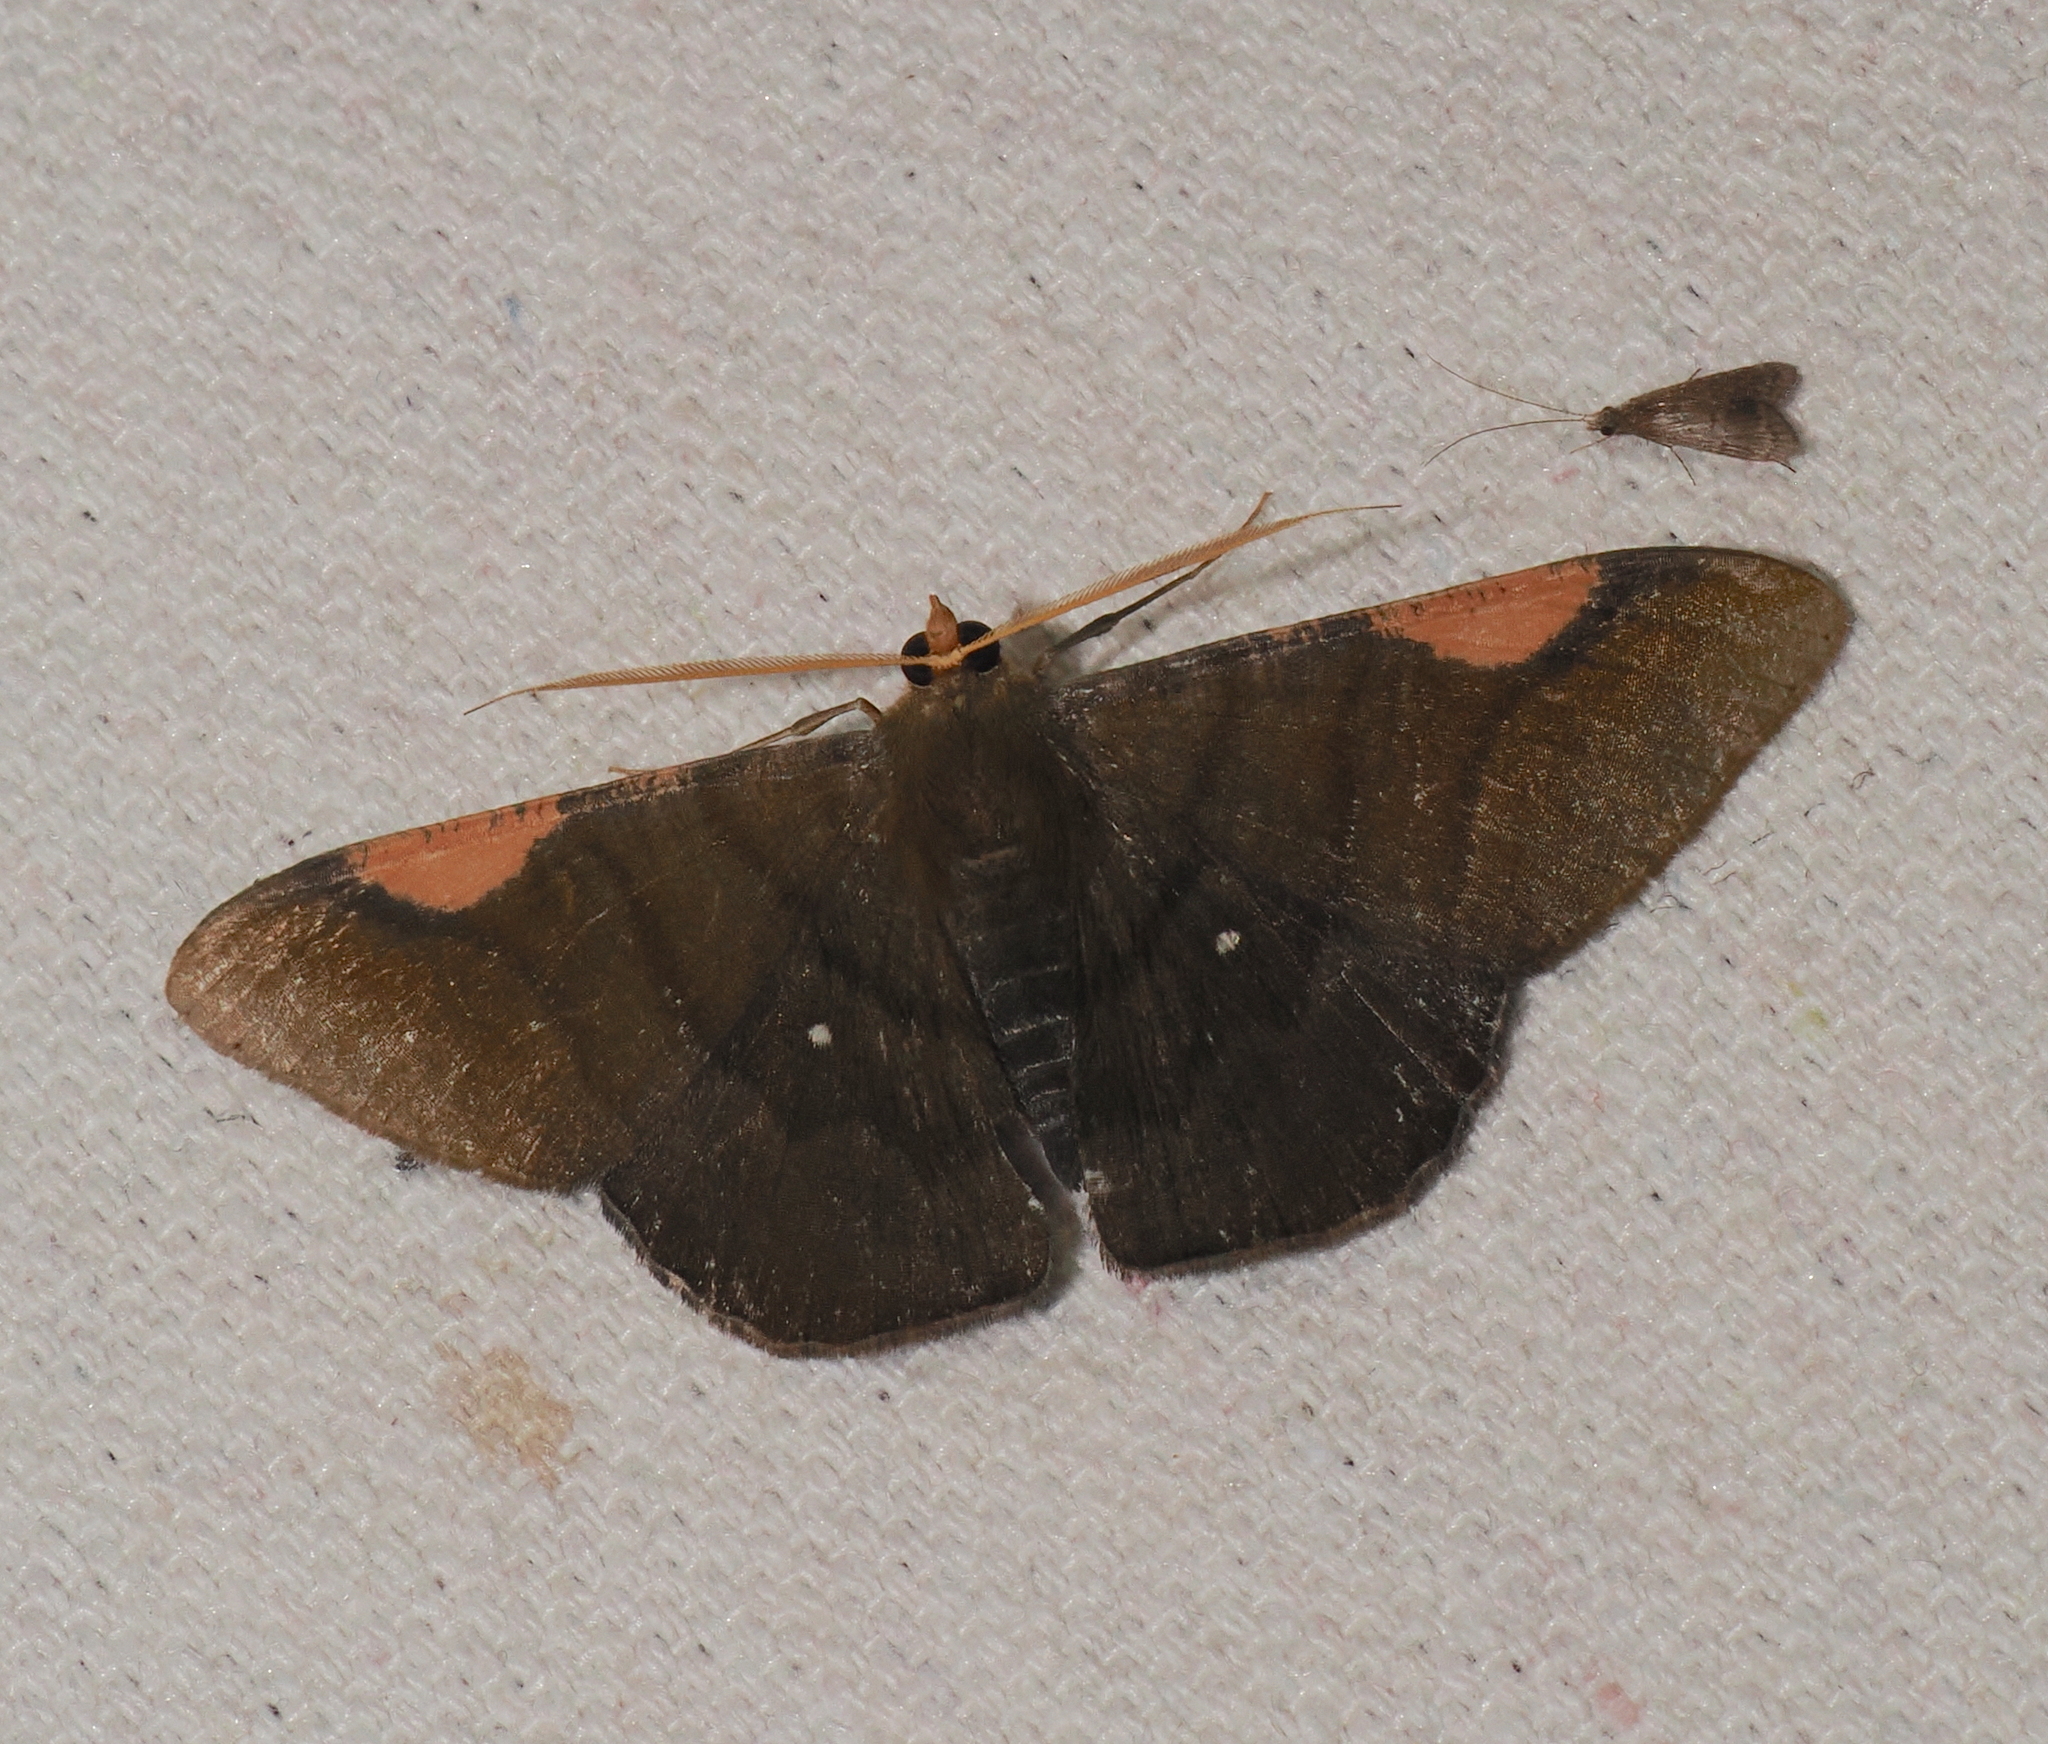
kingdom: Animalia
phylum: Arthropoda
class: Insecta
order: Lepidoptera
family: Geometridae
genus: Sphacelodes
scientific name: Sphacelodes vulneraria
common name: Looper moth
